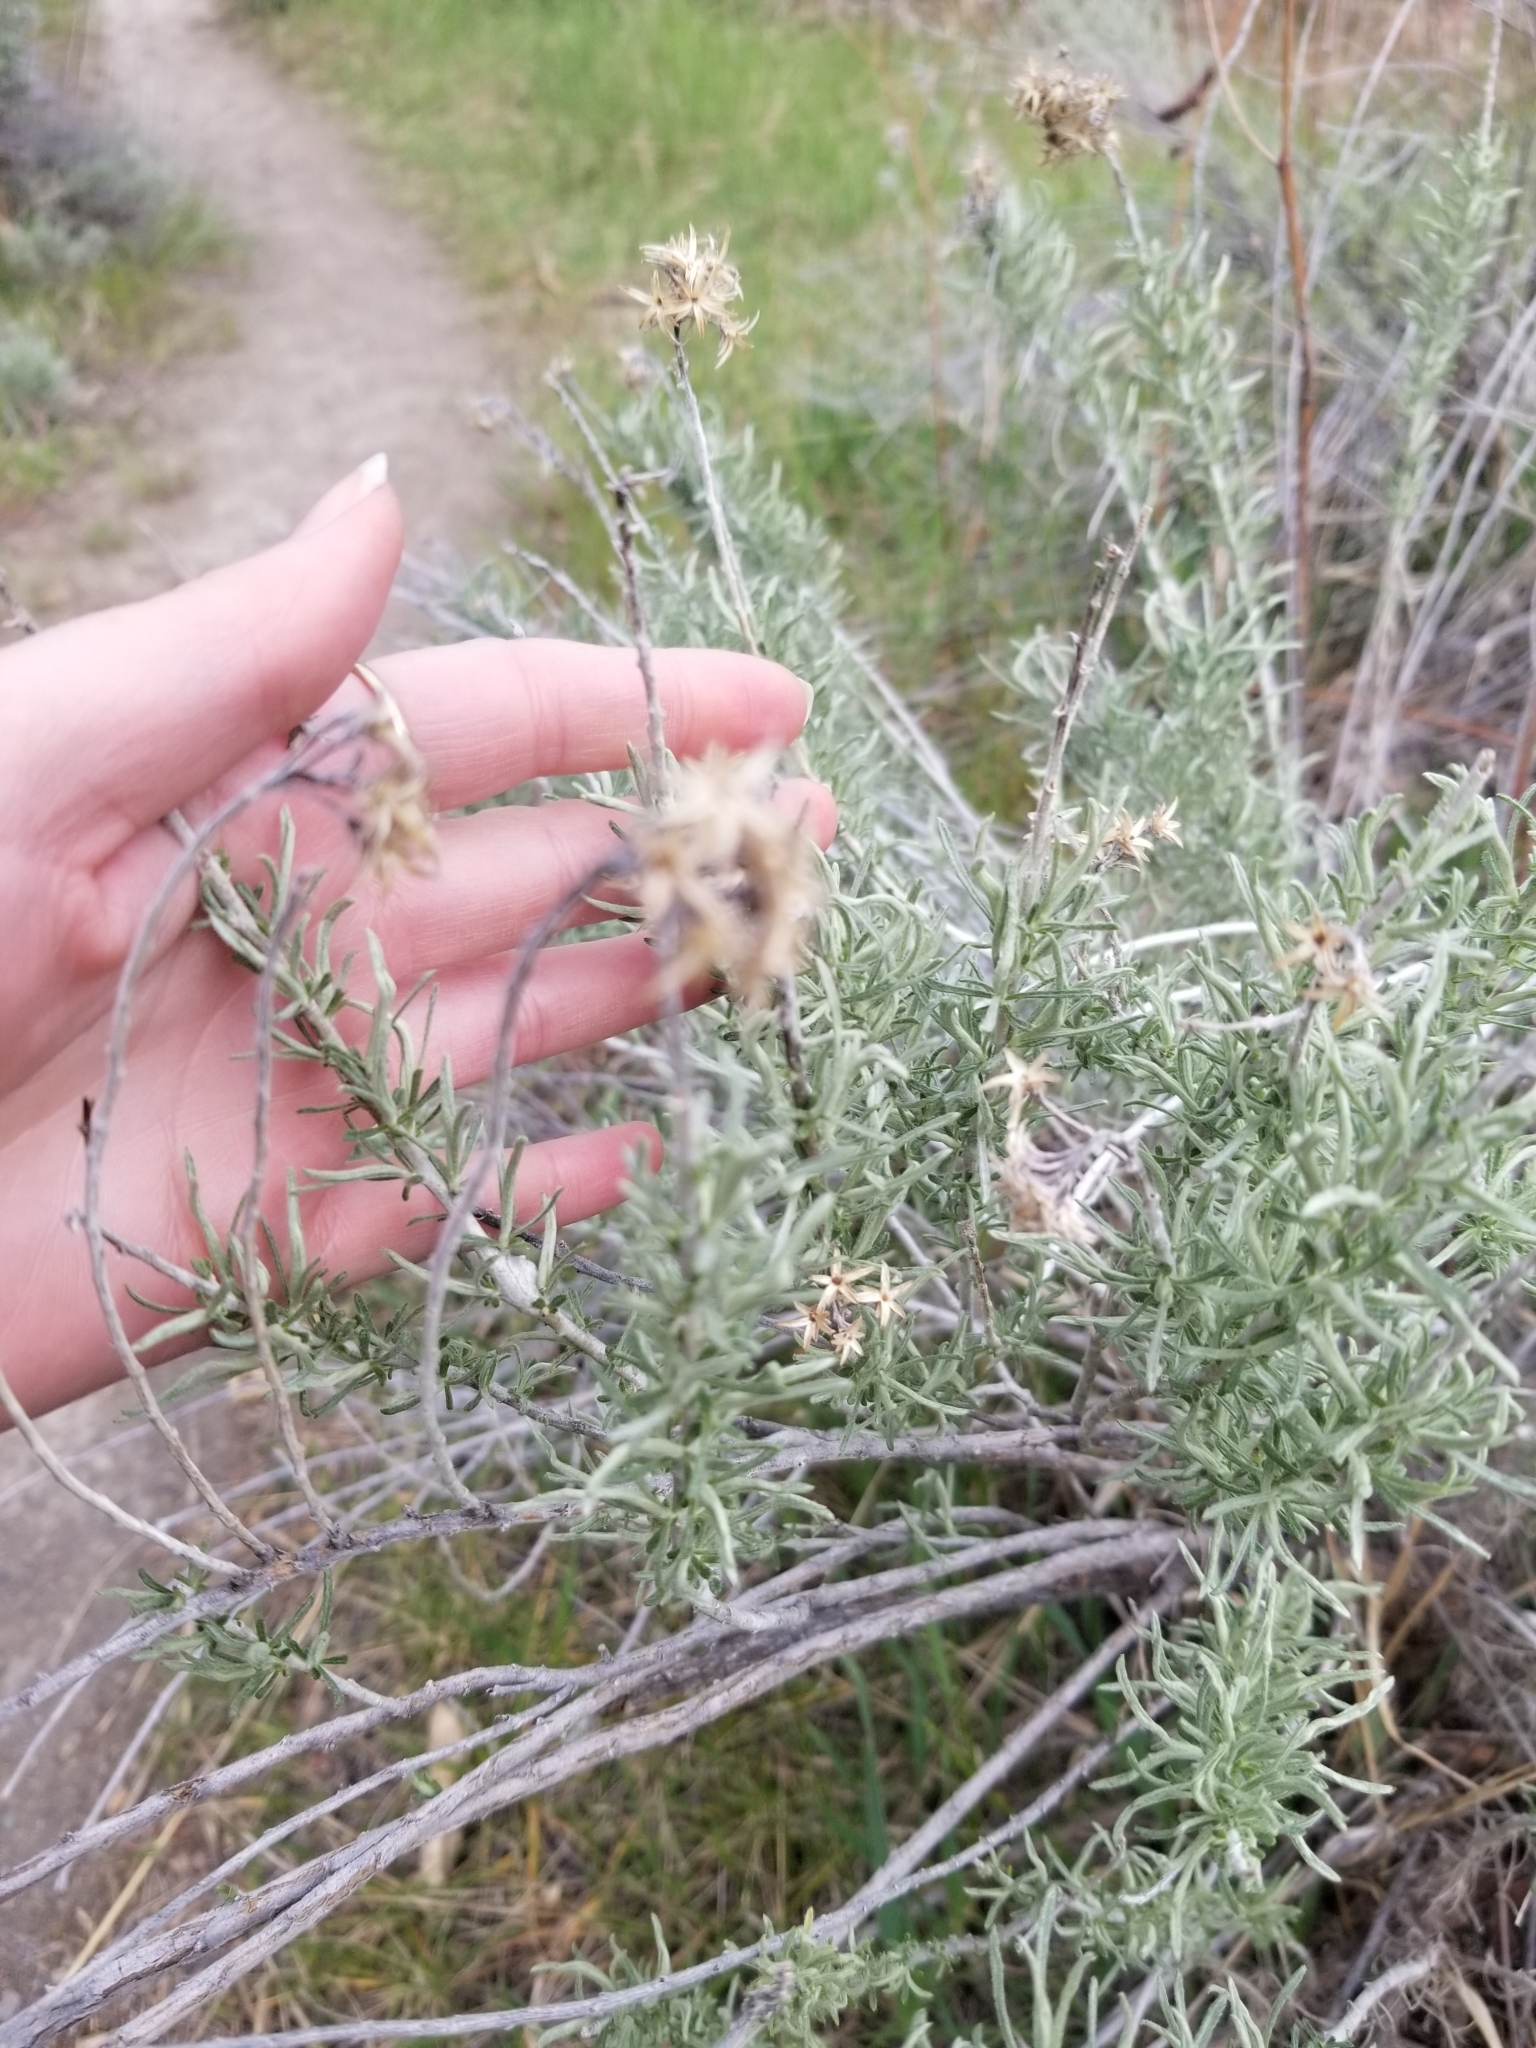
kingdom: Plantae
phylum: Tracheophyta
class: Magnoliopsida
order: Asterales
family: Asteraceae
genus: Ericameria
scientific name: Ericameria nauseosa
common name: Rubber rabbitbrush
